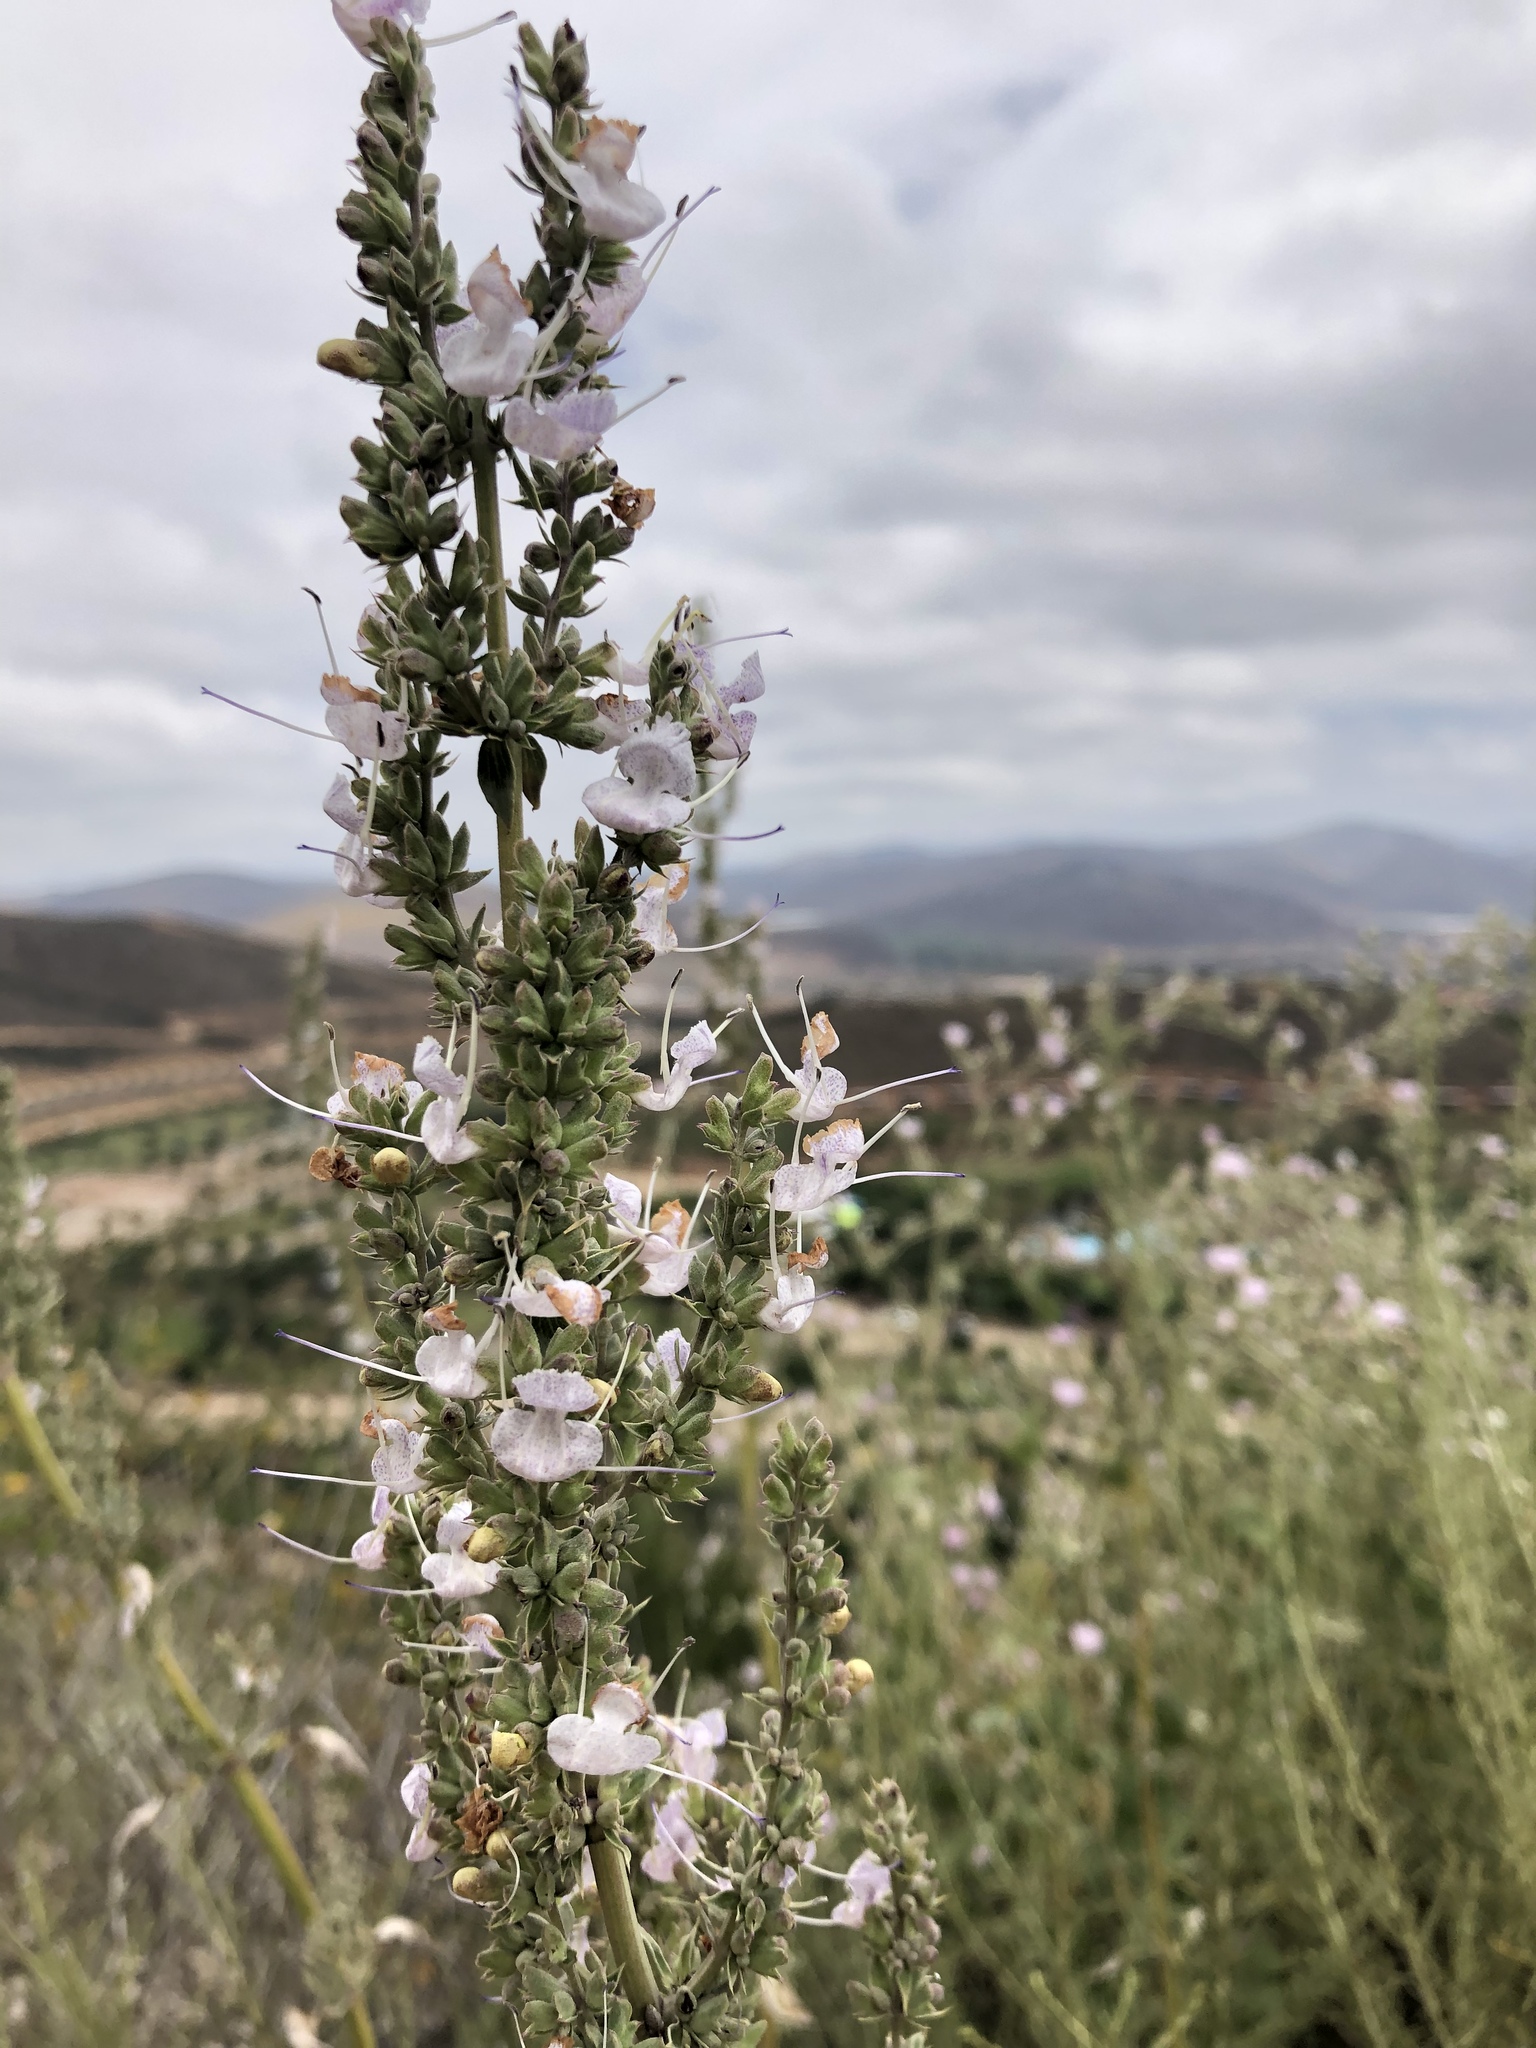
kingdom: Plantae
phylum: Tracheophyta
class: Magnoliopsida
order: Lamiales
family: Lamiaceae
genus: Salvia
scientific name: Salvia apiana
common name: White sage
